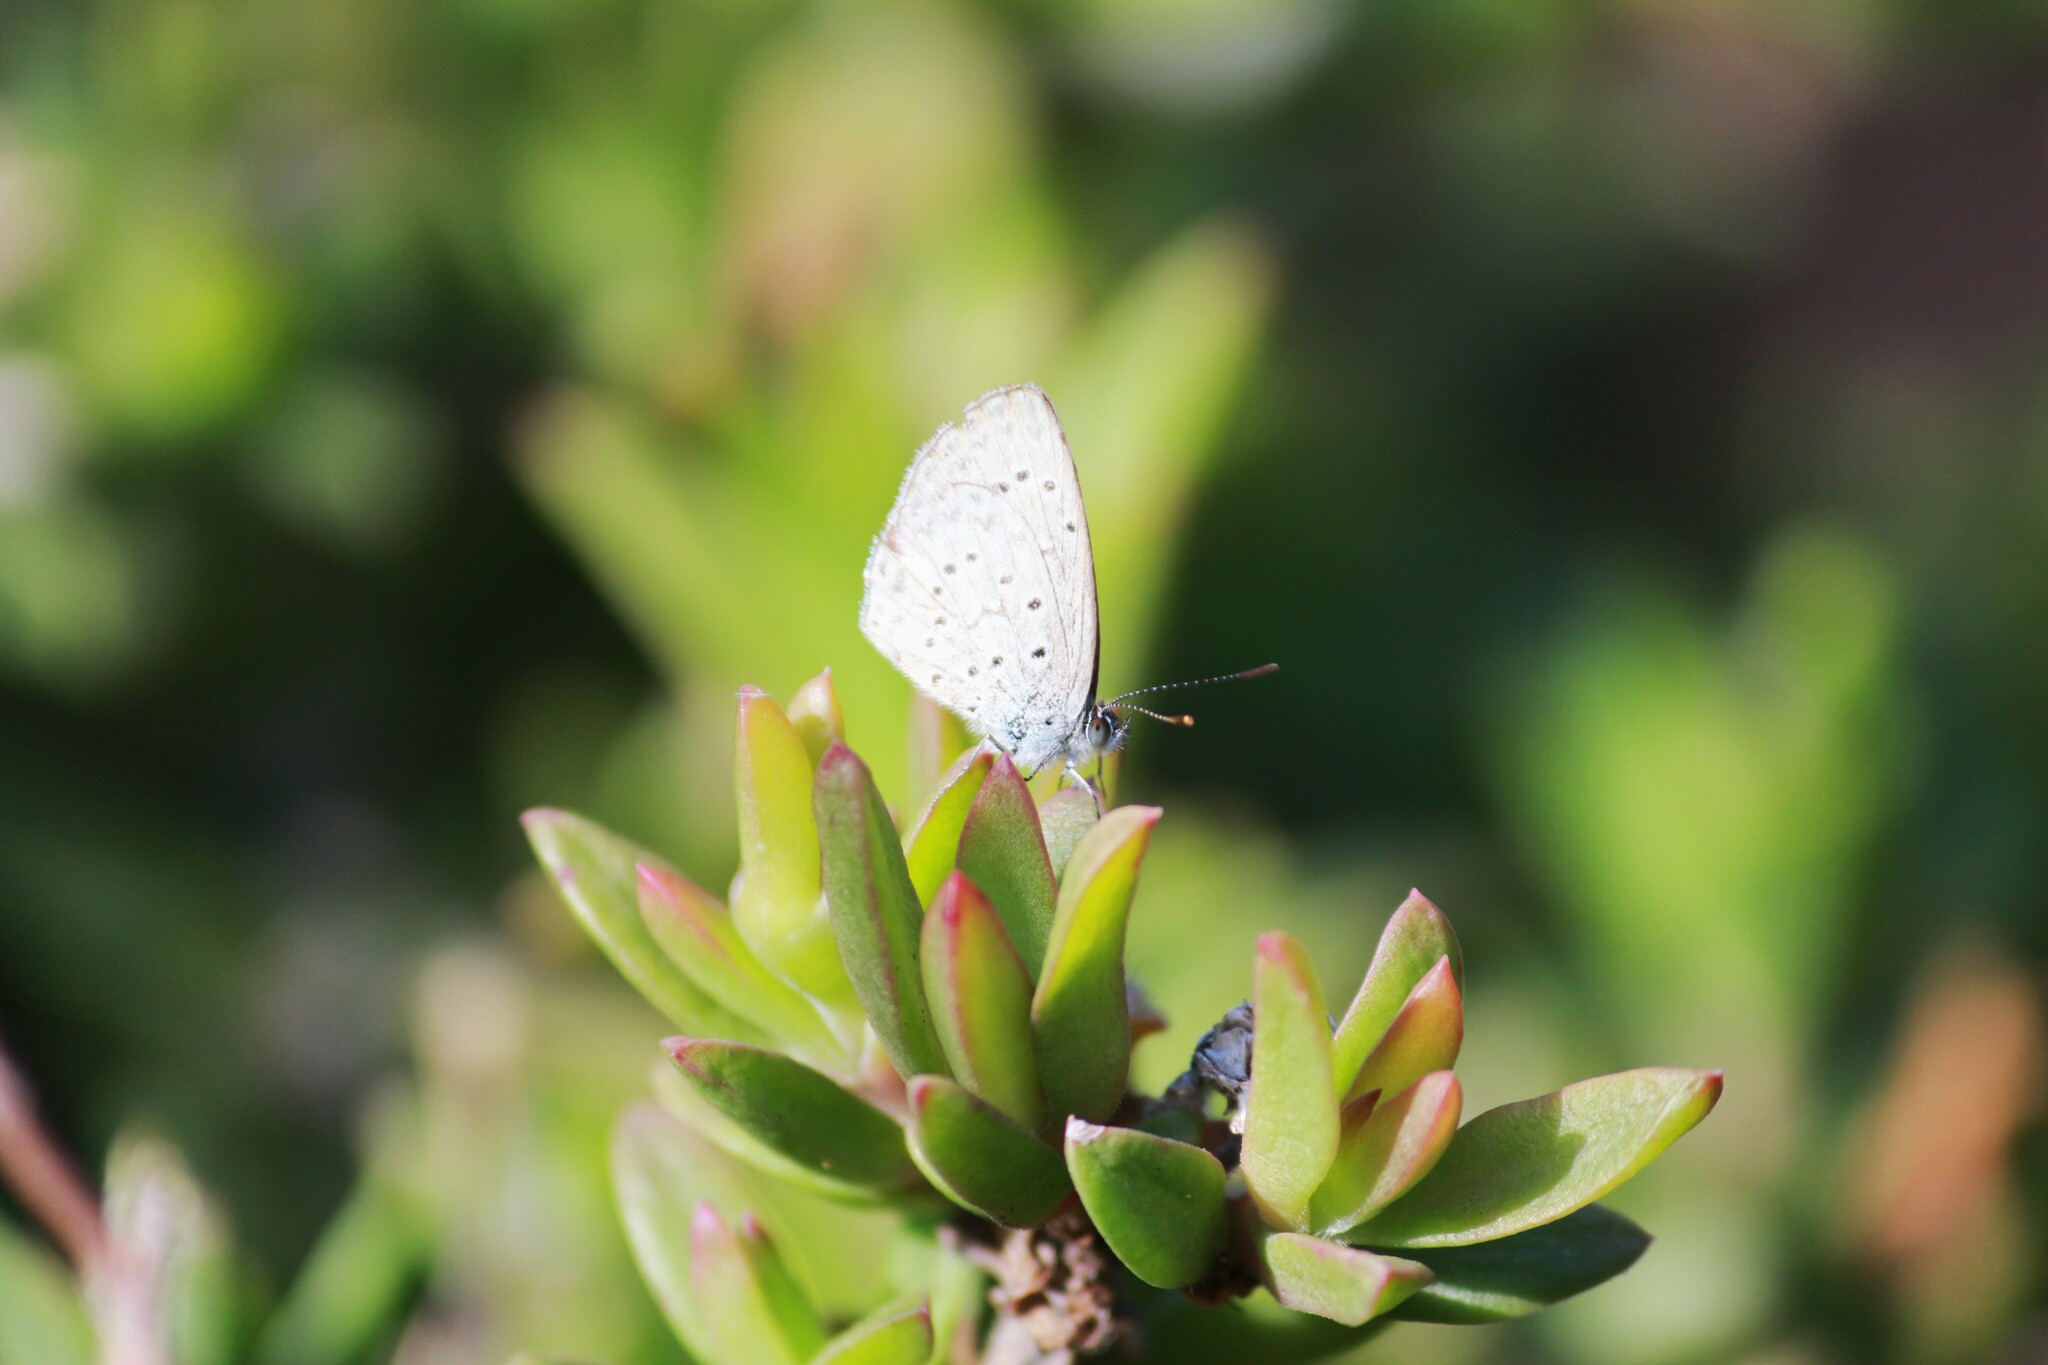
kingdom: Animalia
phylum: Arthropoda
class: Insecta
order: Lepidoptera
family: Lycaenidae
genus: Zizeeria
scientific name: Zizeeria knysna
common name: African grass blue
